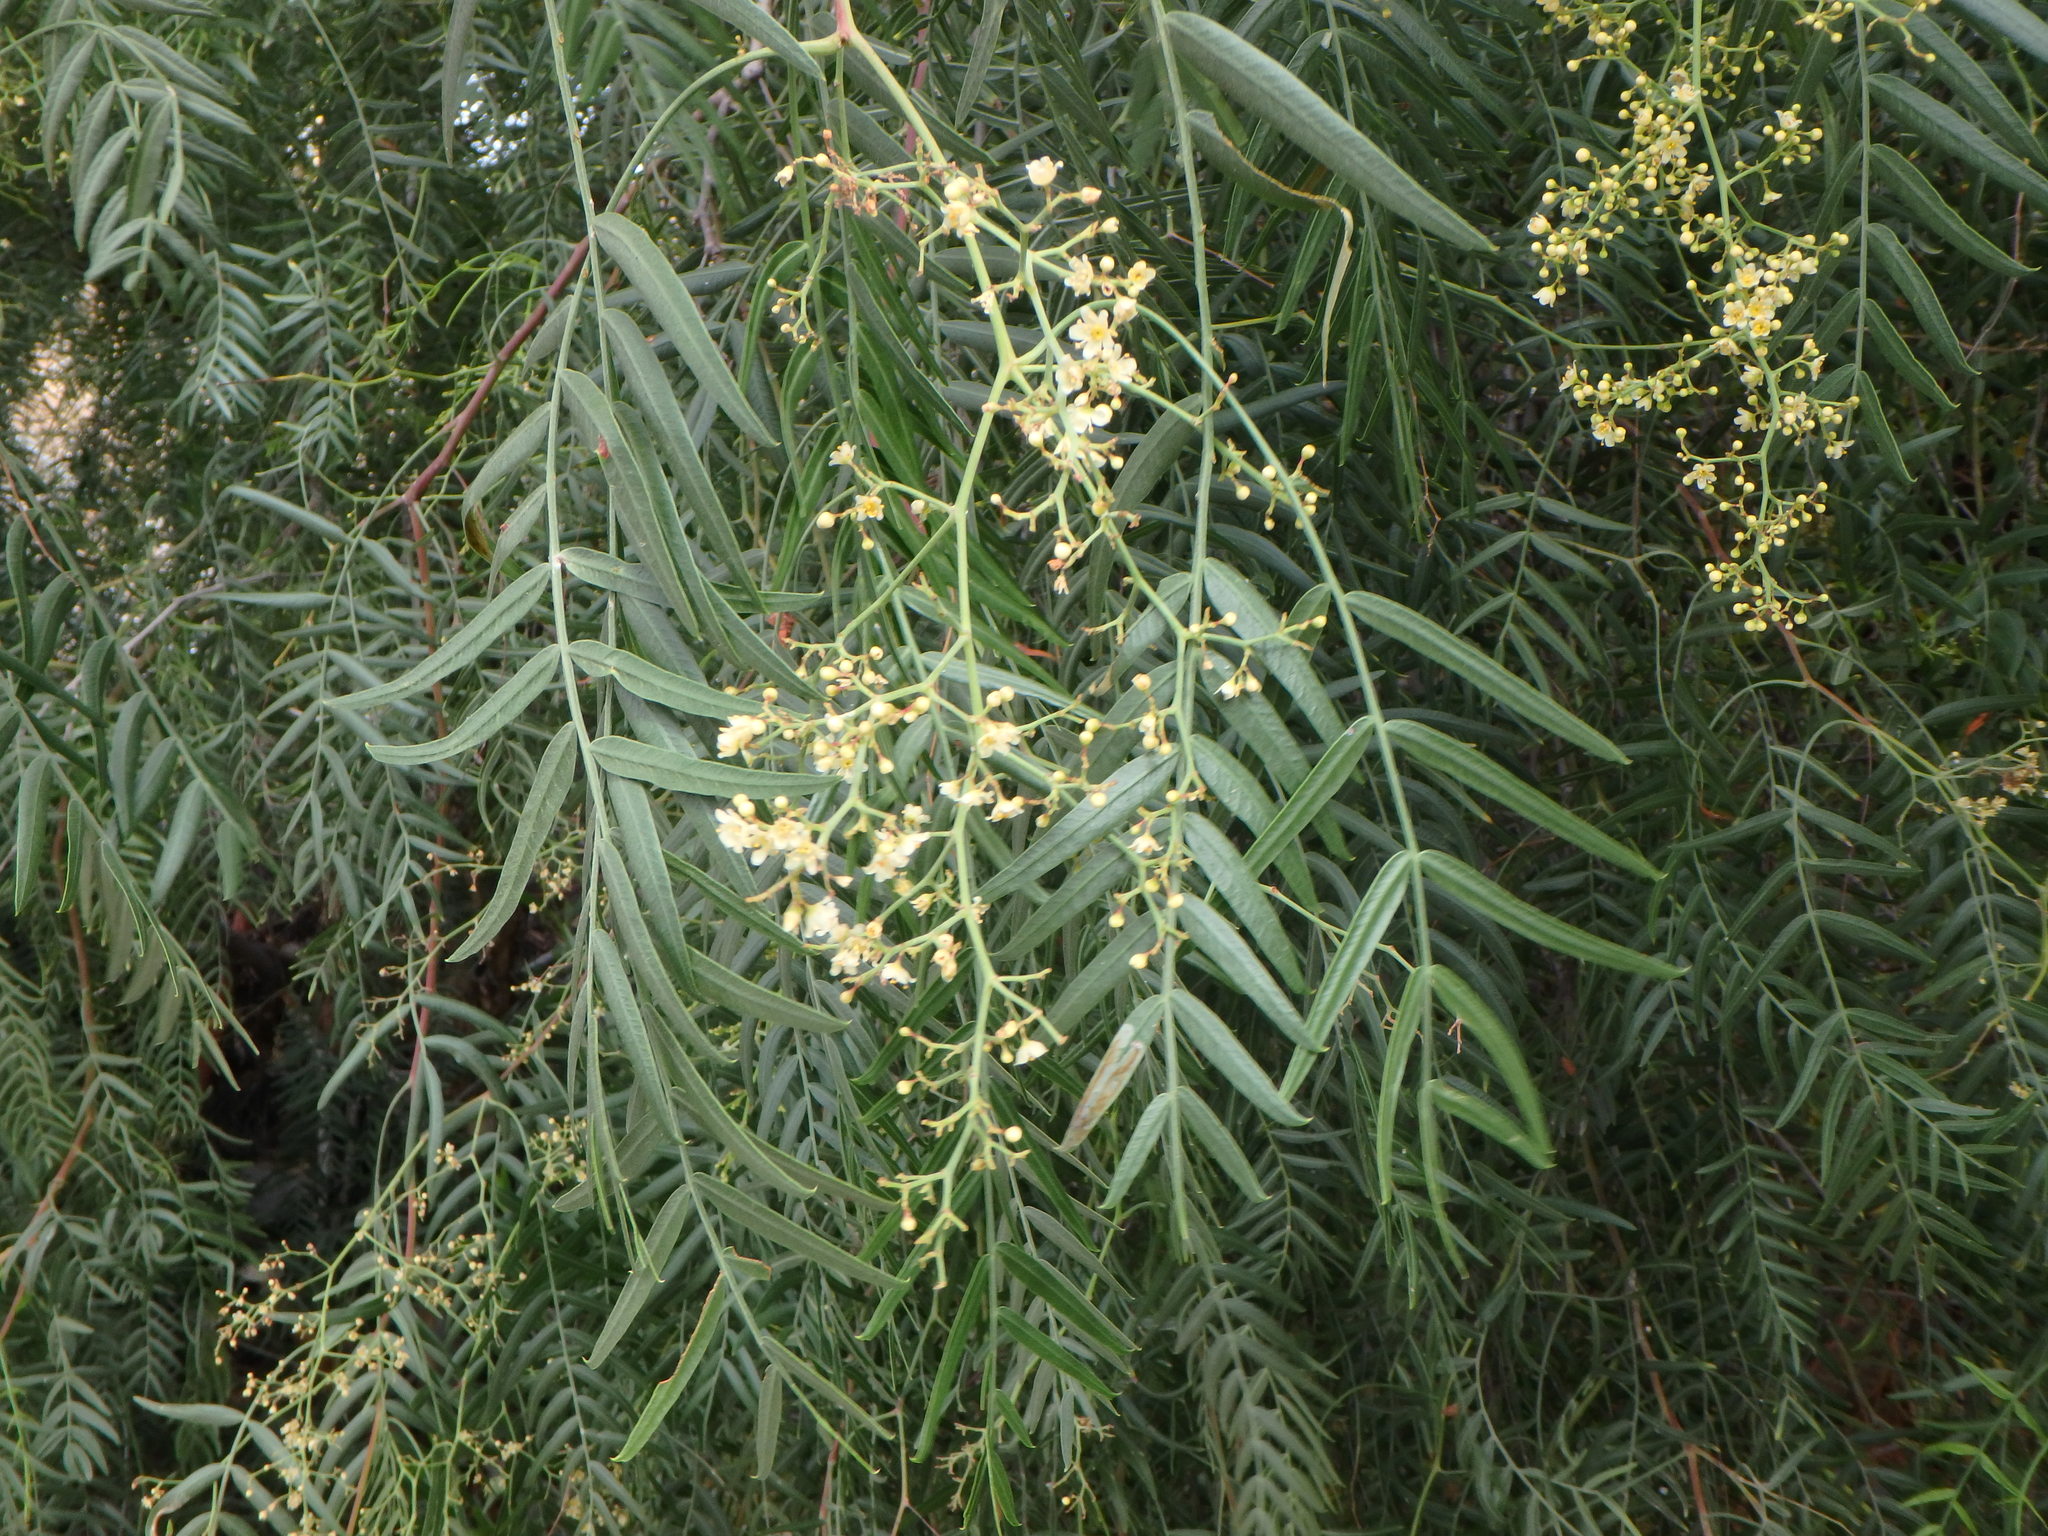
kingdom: Plantae
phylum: Tracheophyta
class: Magnoliopsida
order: Sapindales
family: Anacardiaceae
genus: Schinus
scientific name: Schinus molle
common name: Peruvian peppertree
